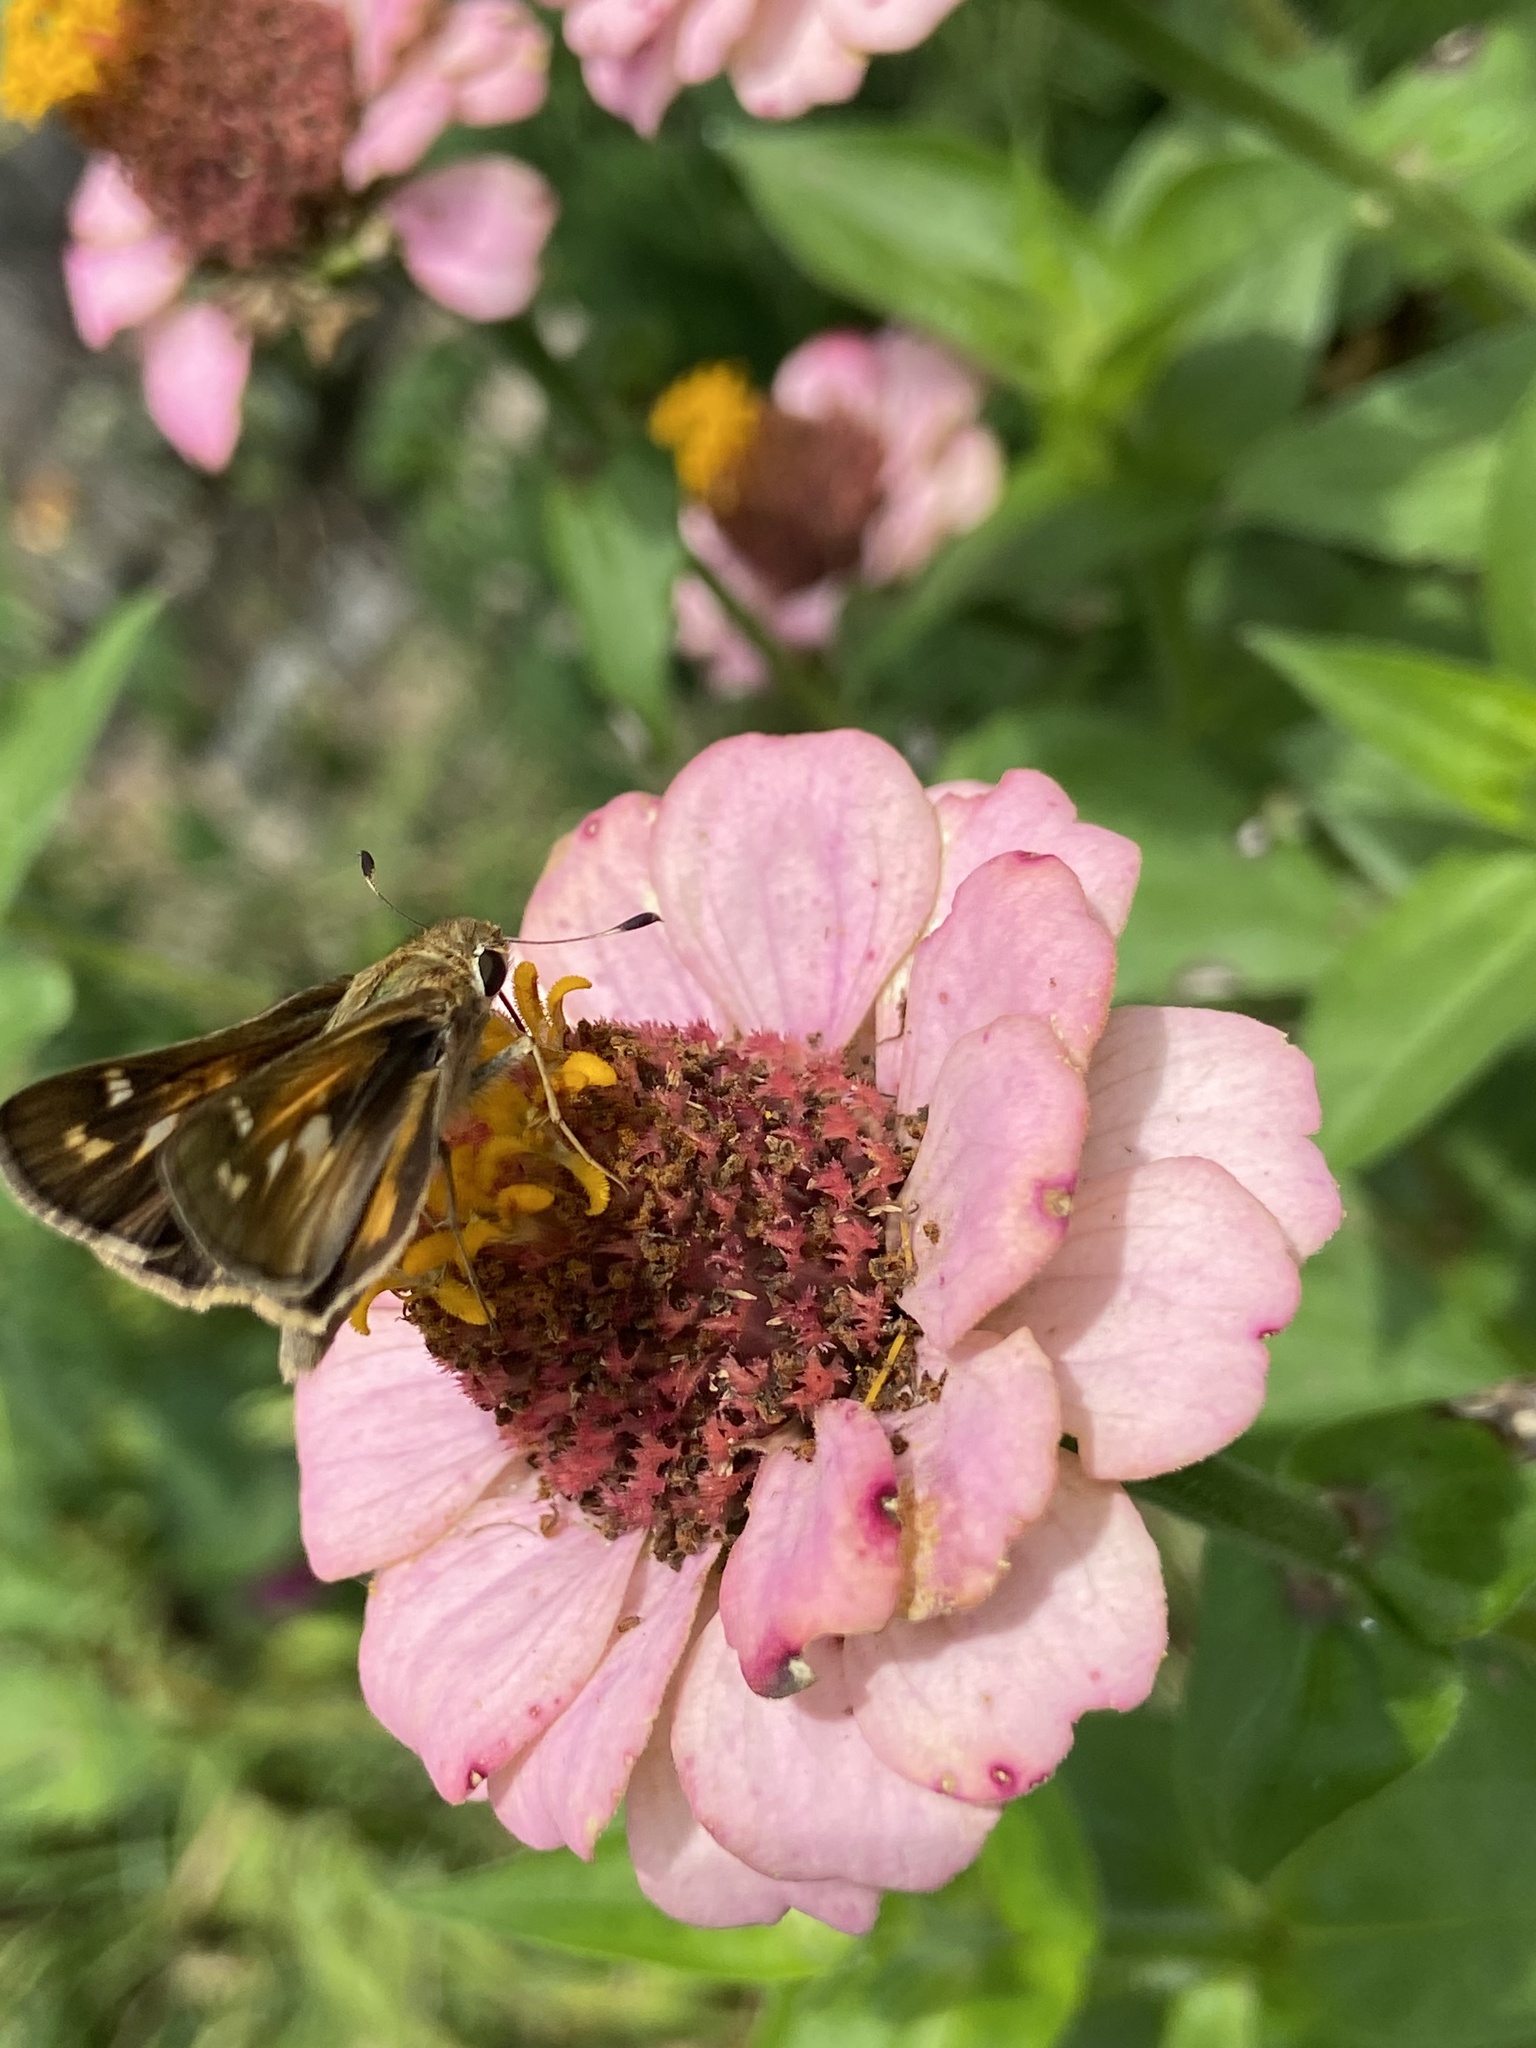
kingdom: Animalia
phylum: Arthropoda
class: Insecta
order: Lepidoptera
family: Hesperiidae
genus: Atalopedes
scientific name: Atalopedes
